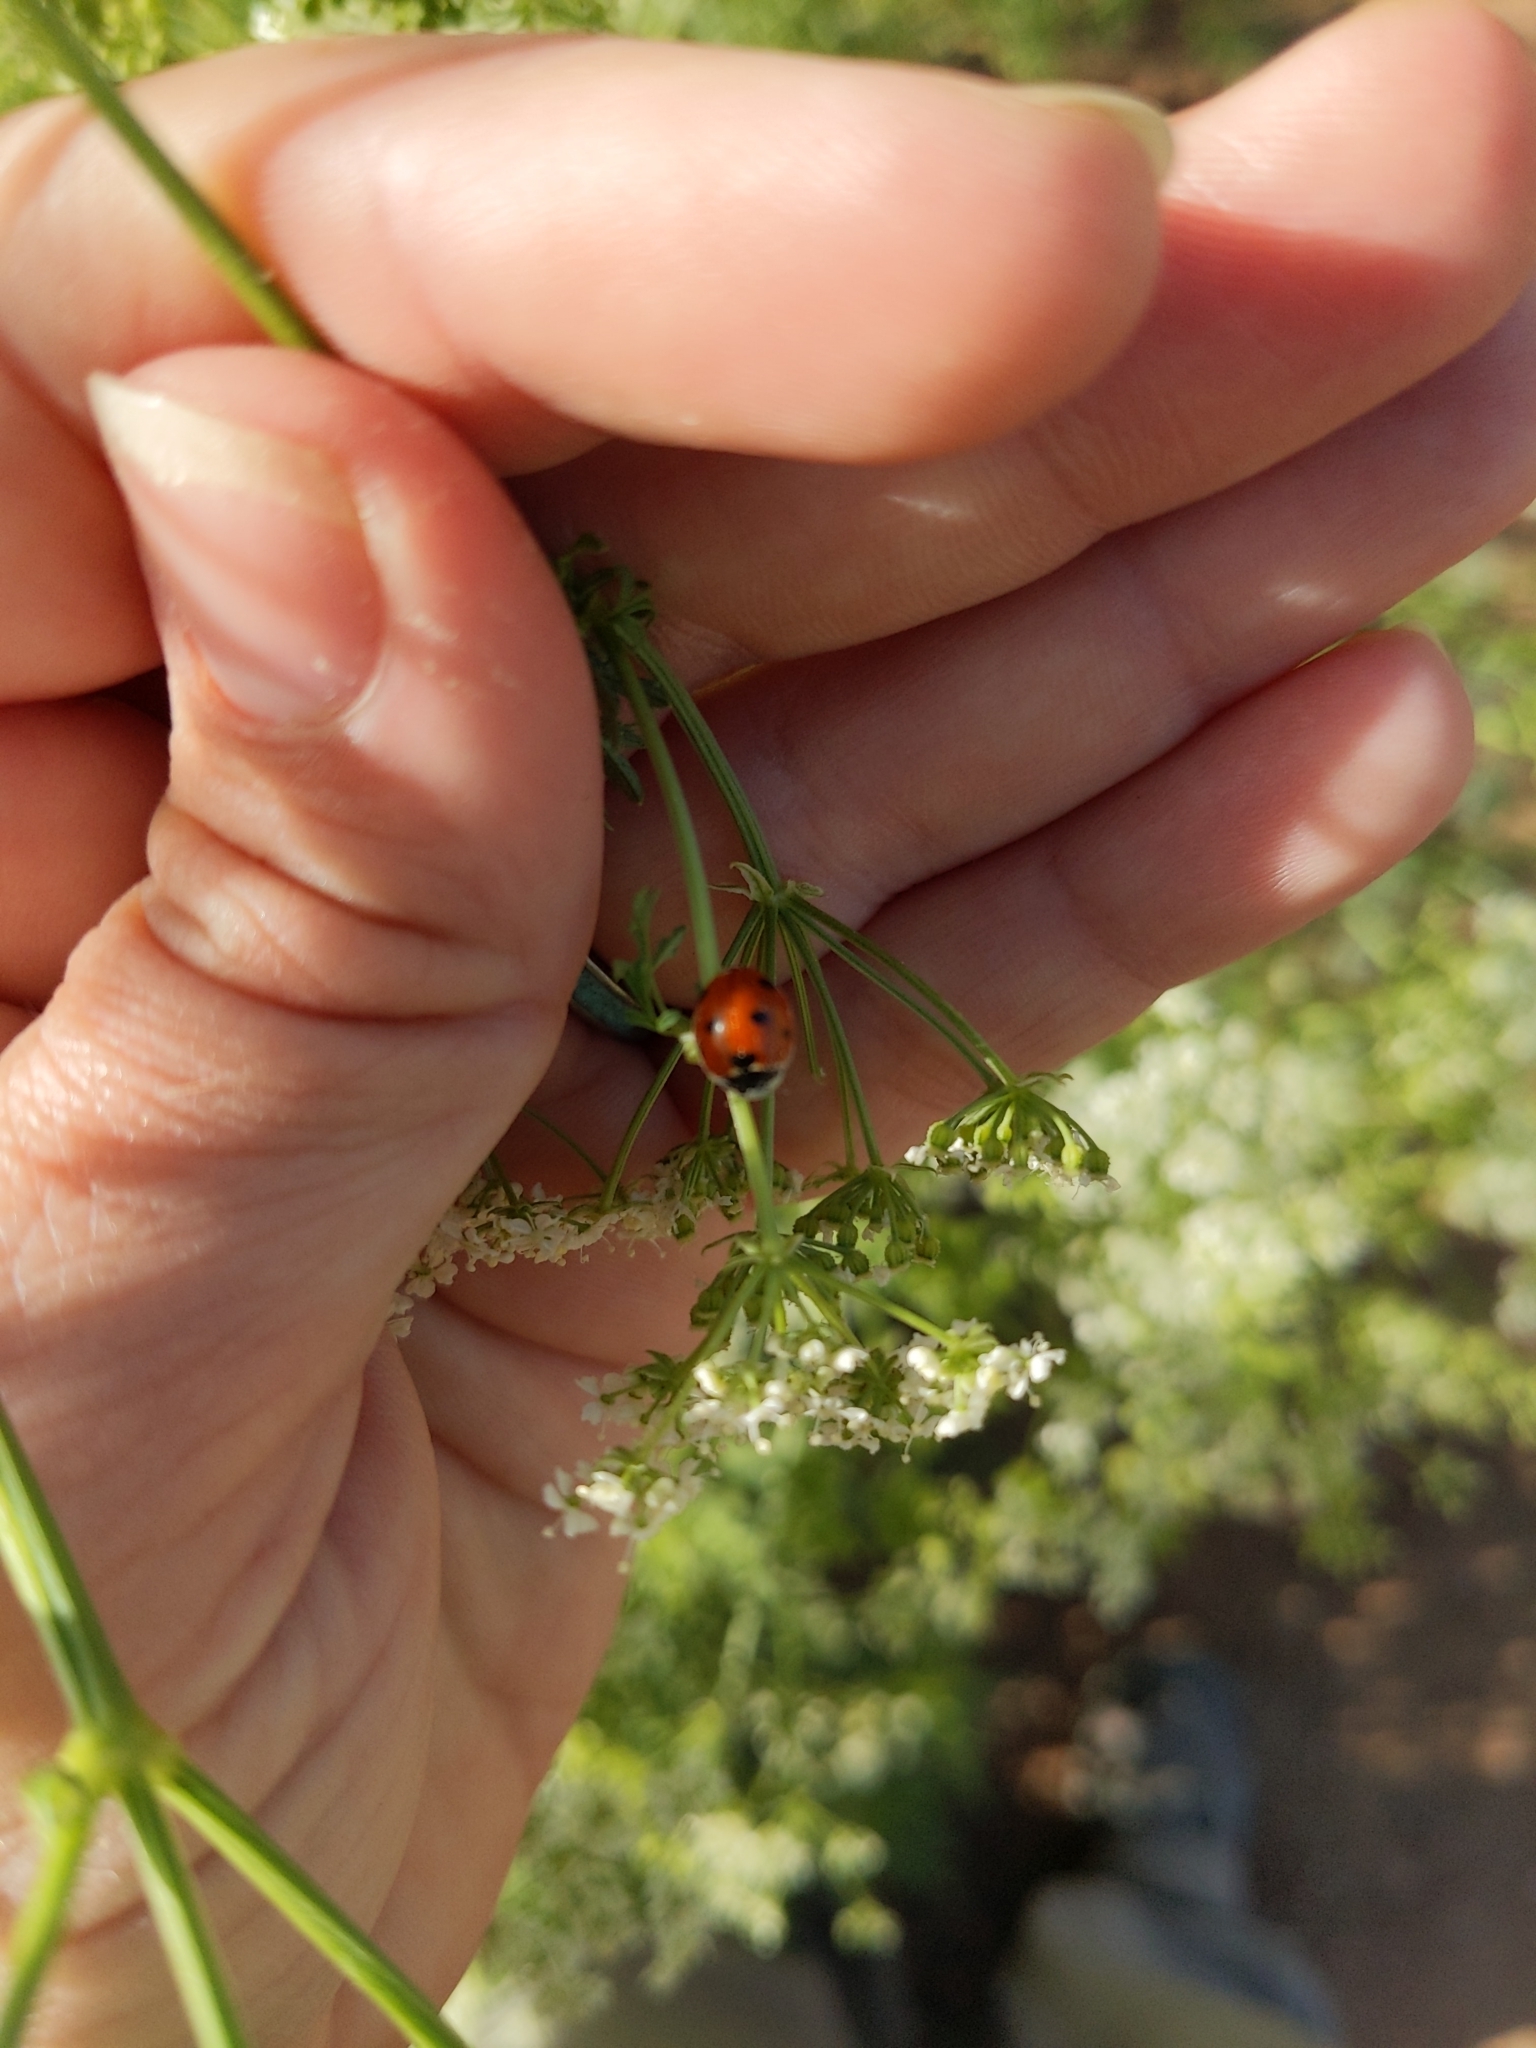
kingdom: Animalia
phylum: Arthropoda
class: Insecta
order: Coleoptera
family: Coccinellidae
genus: Coccinella
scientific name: Coccinella septempunctata
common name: Sevenspotted lady beetle
